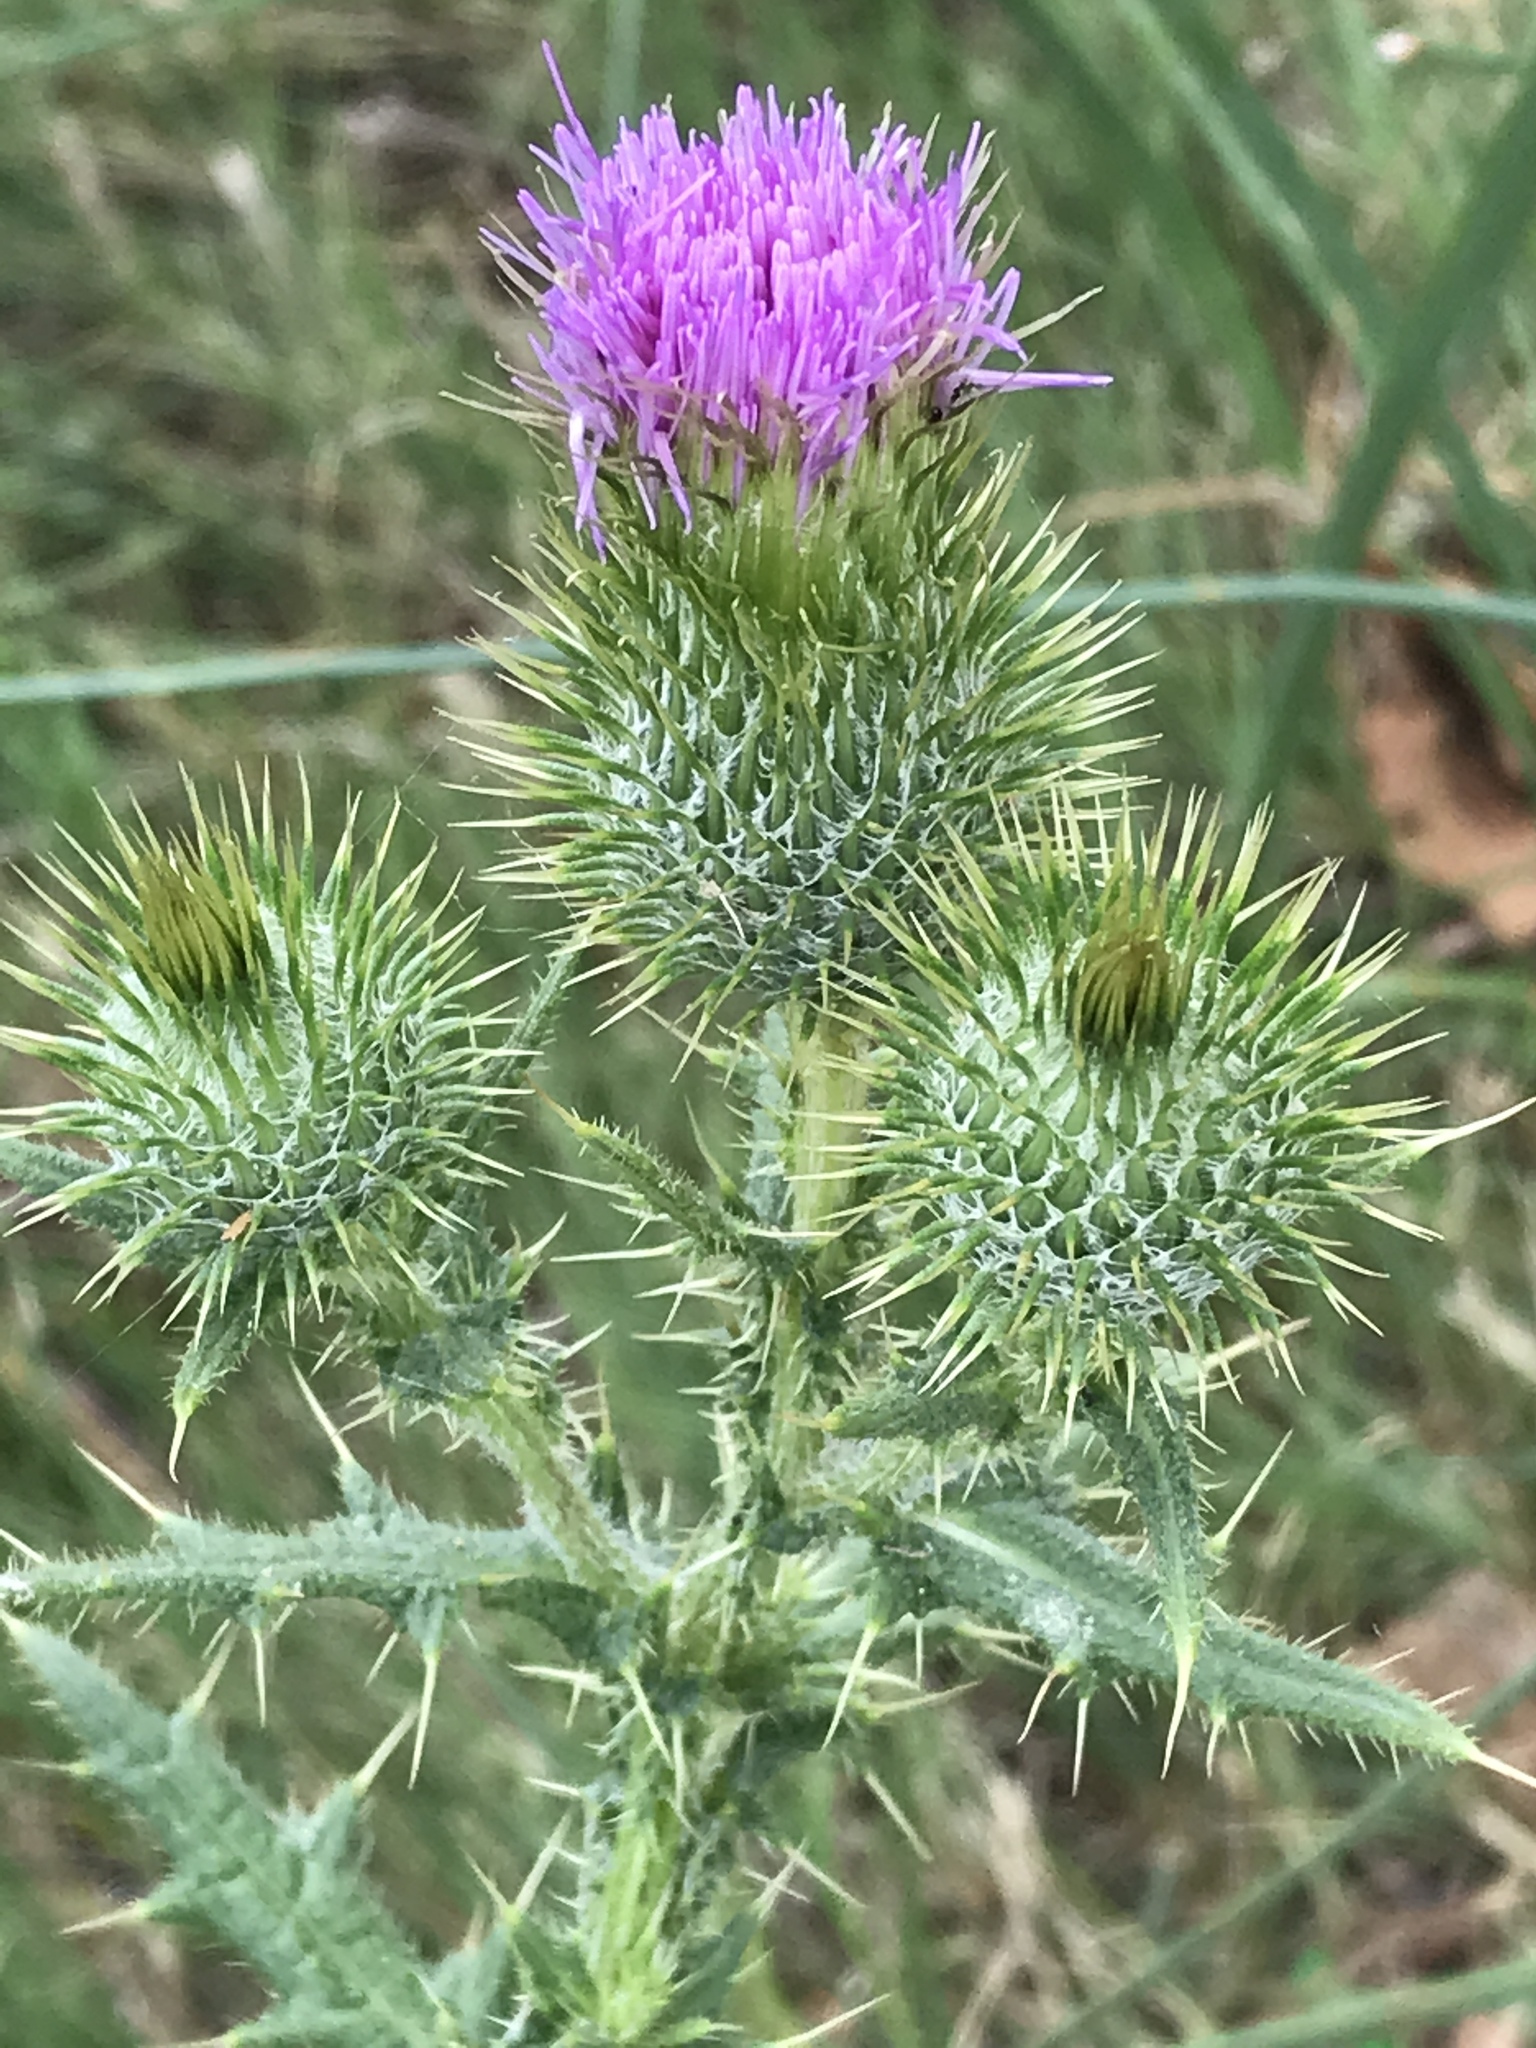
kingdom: Plantae
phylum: Tracheophyta
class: Magnoliopsida
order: Asterales
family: Asteraceae
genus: Cirsium
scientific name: Cirsium vulgare
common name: Bull thistle
